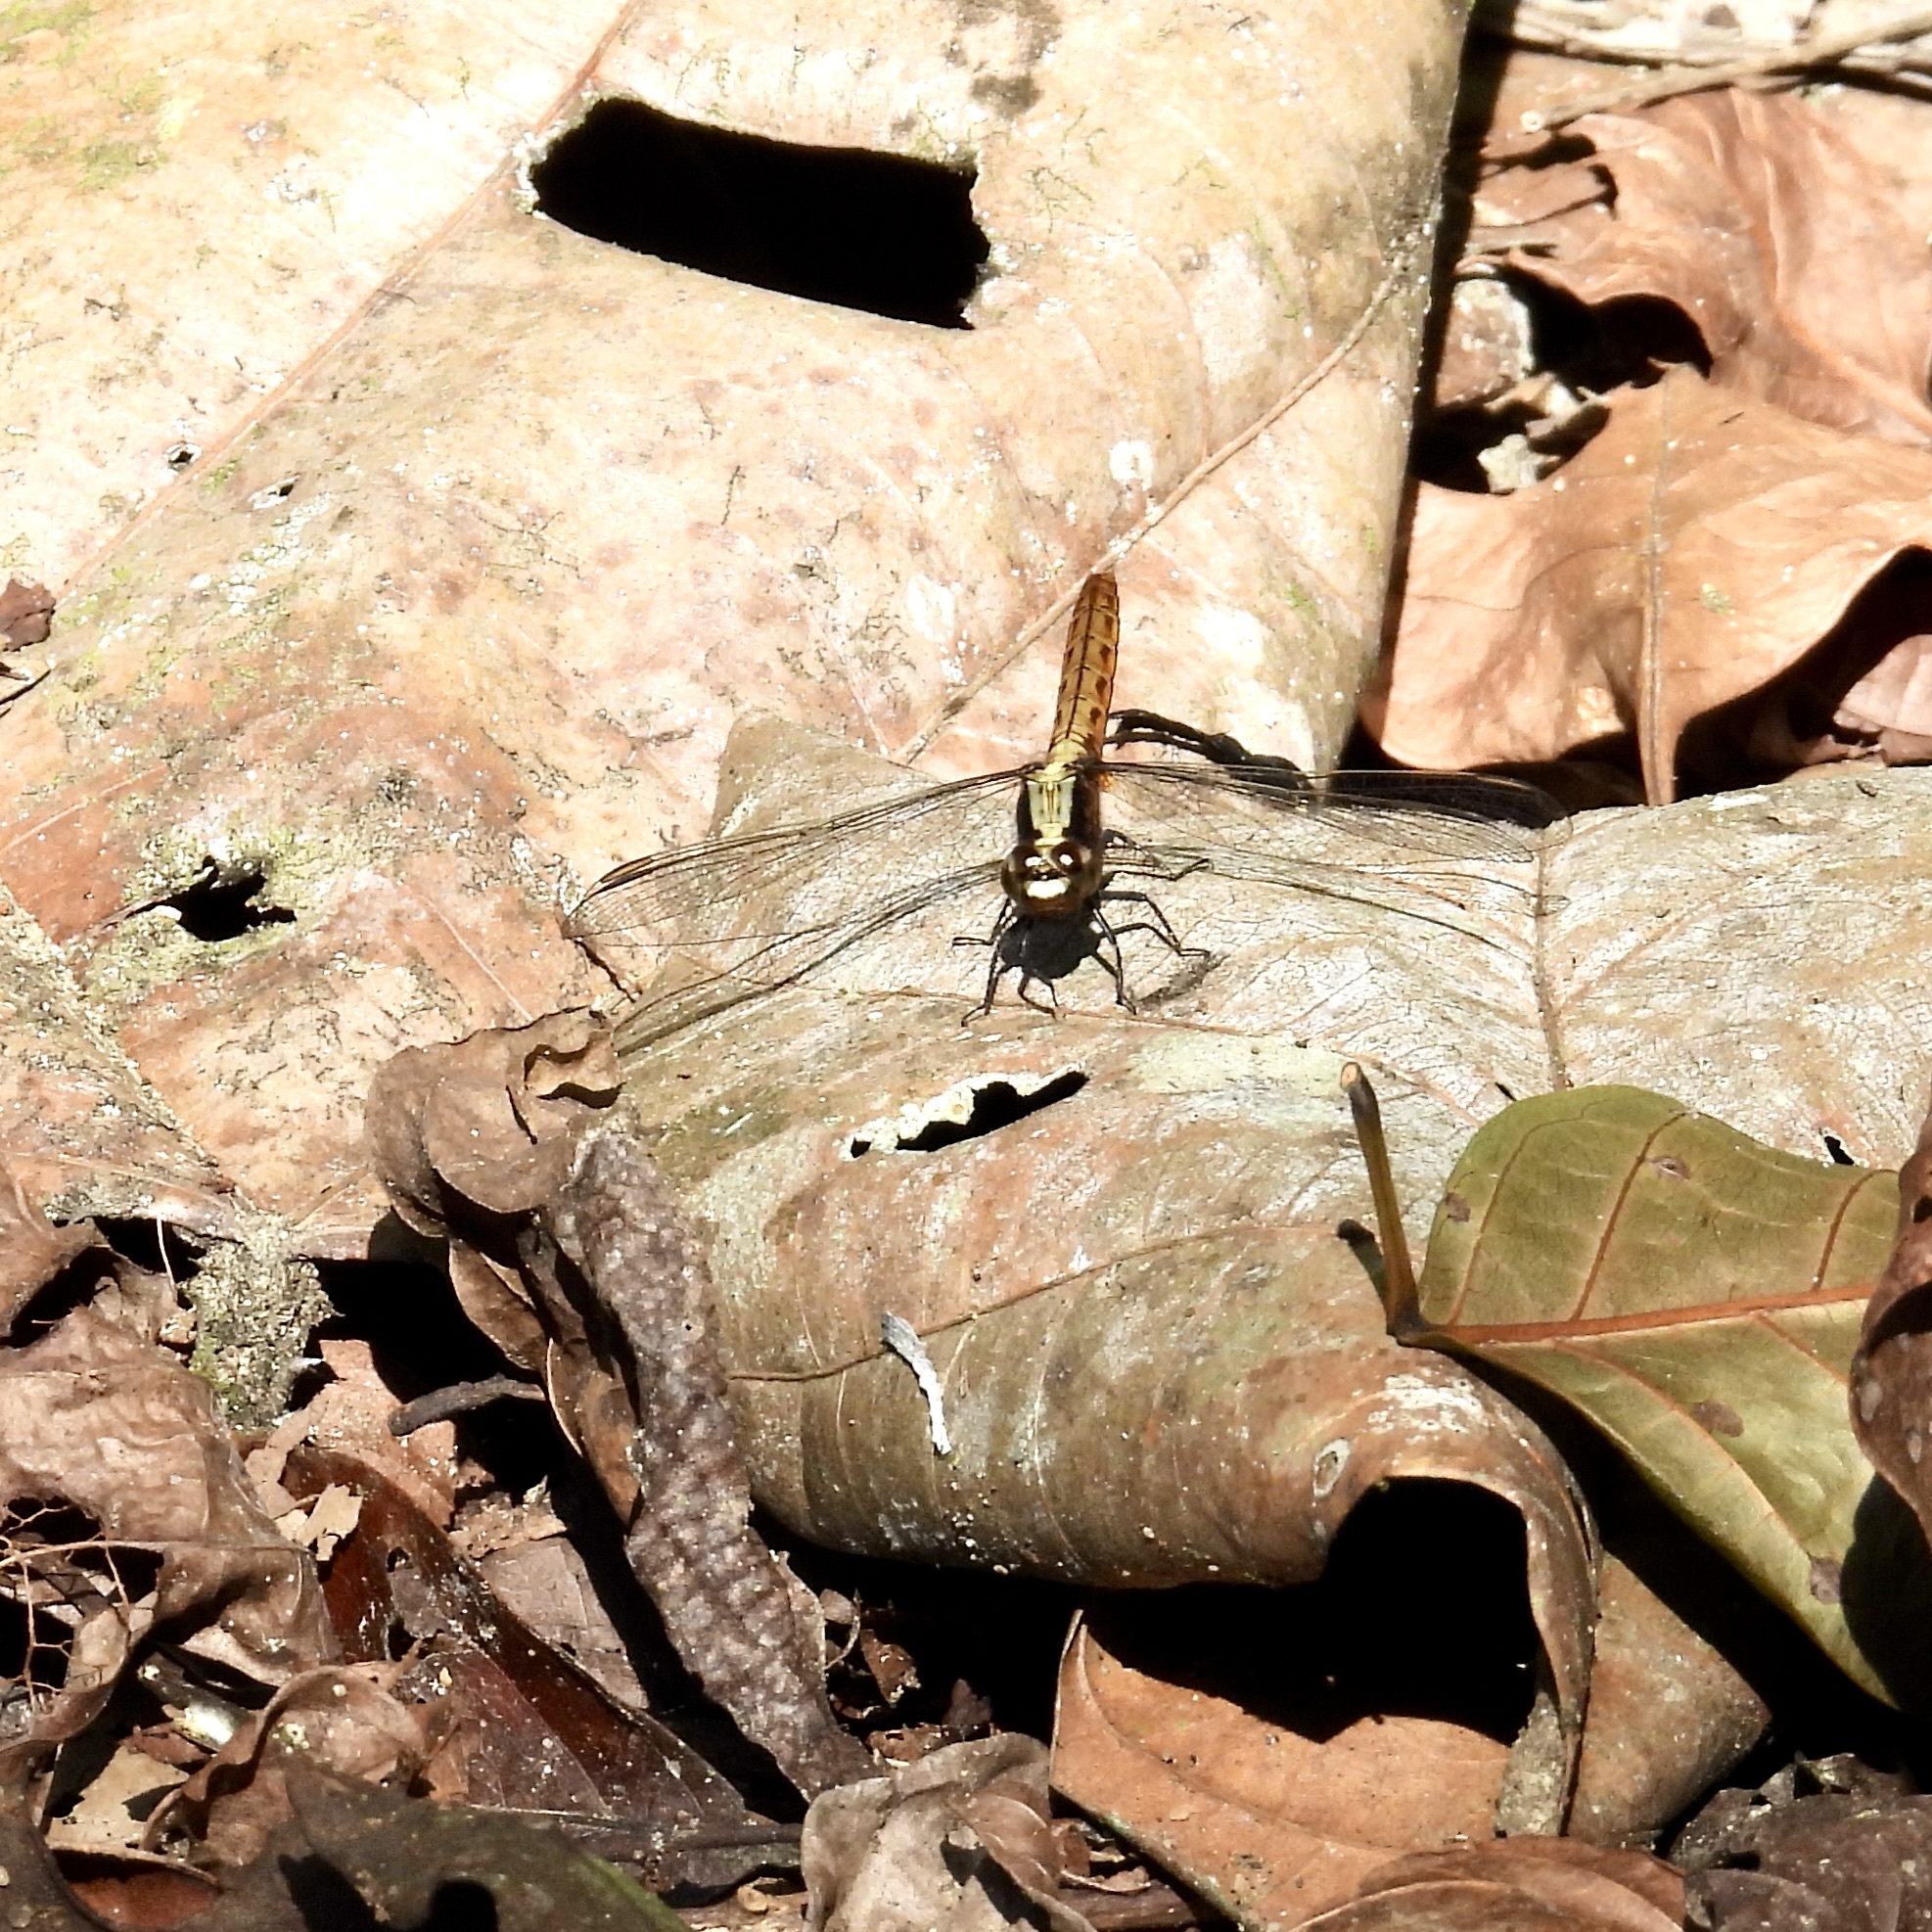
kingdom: Animalia
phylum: Arthropoda
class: Insecta
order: Odonata
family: Libellulidae
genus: Erythemis
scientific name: Erythemis peruviana
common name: Flame-tailed pondhawk
